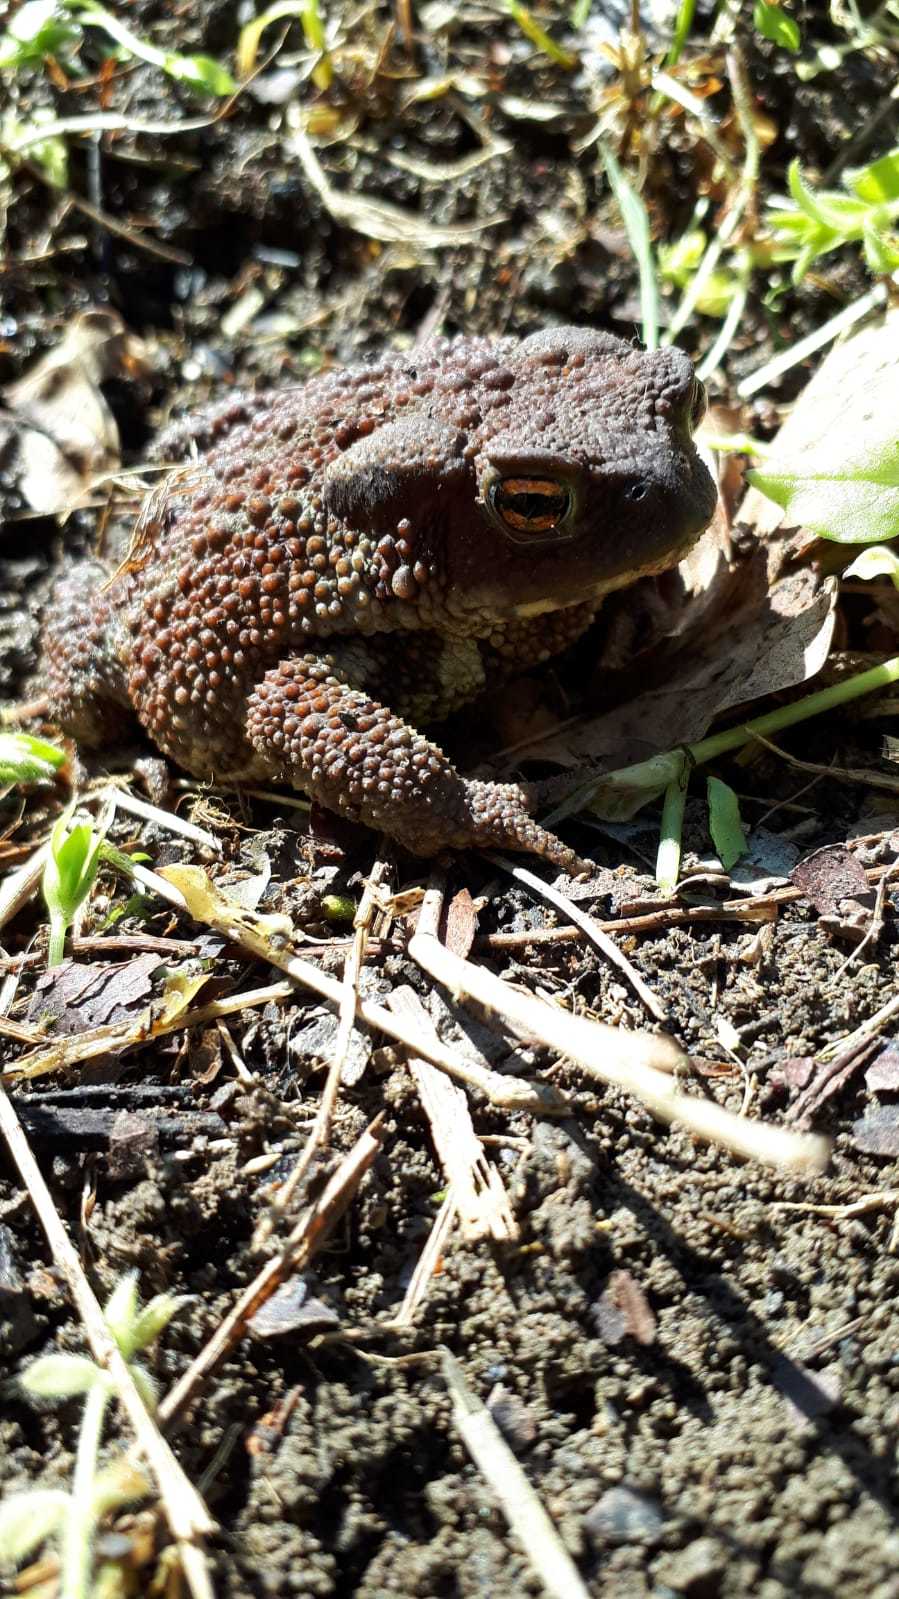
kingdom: Animalia
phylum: Chordata
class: Amphibia
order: Anura
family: Bufonidae
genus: Bufo
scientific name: Bufo bufo
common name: Common toad
